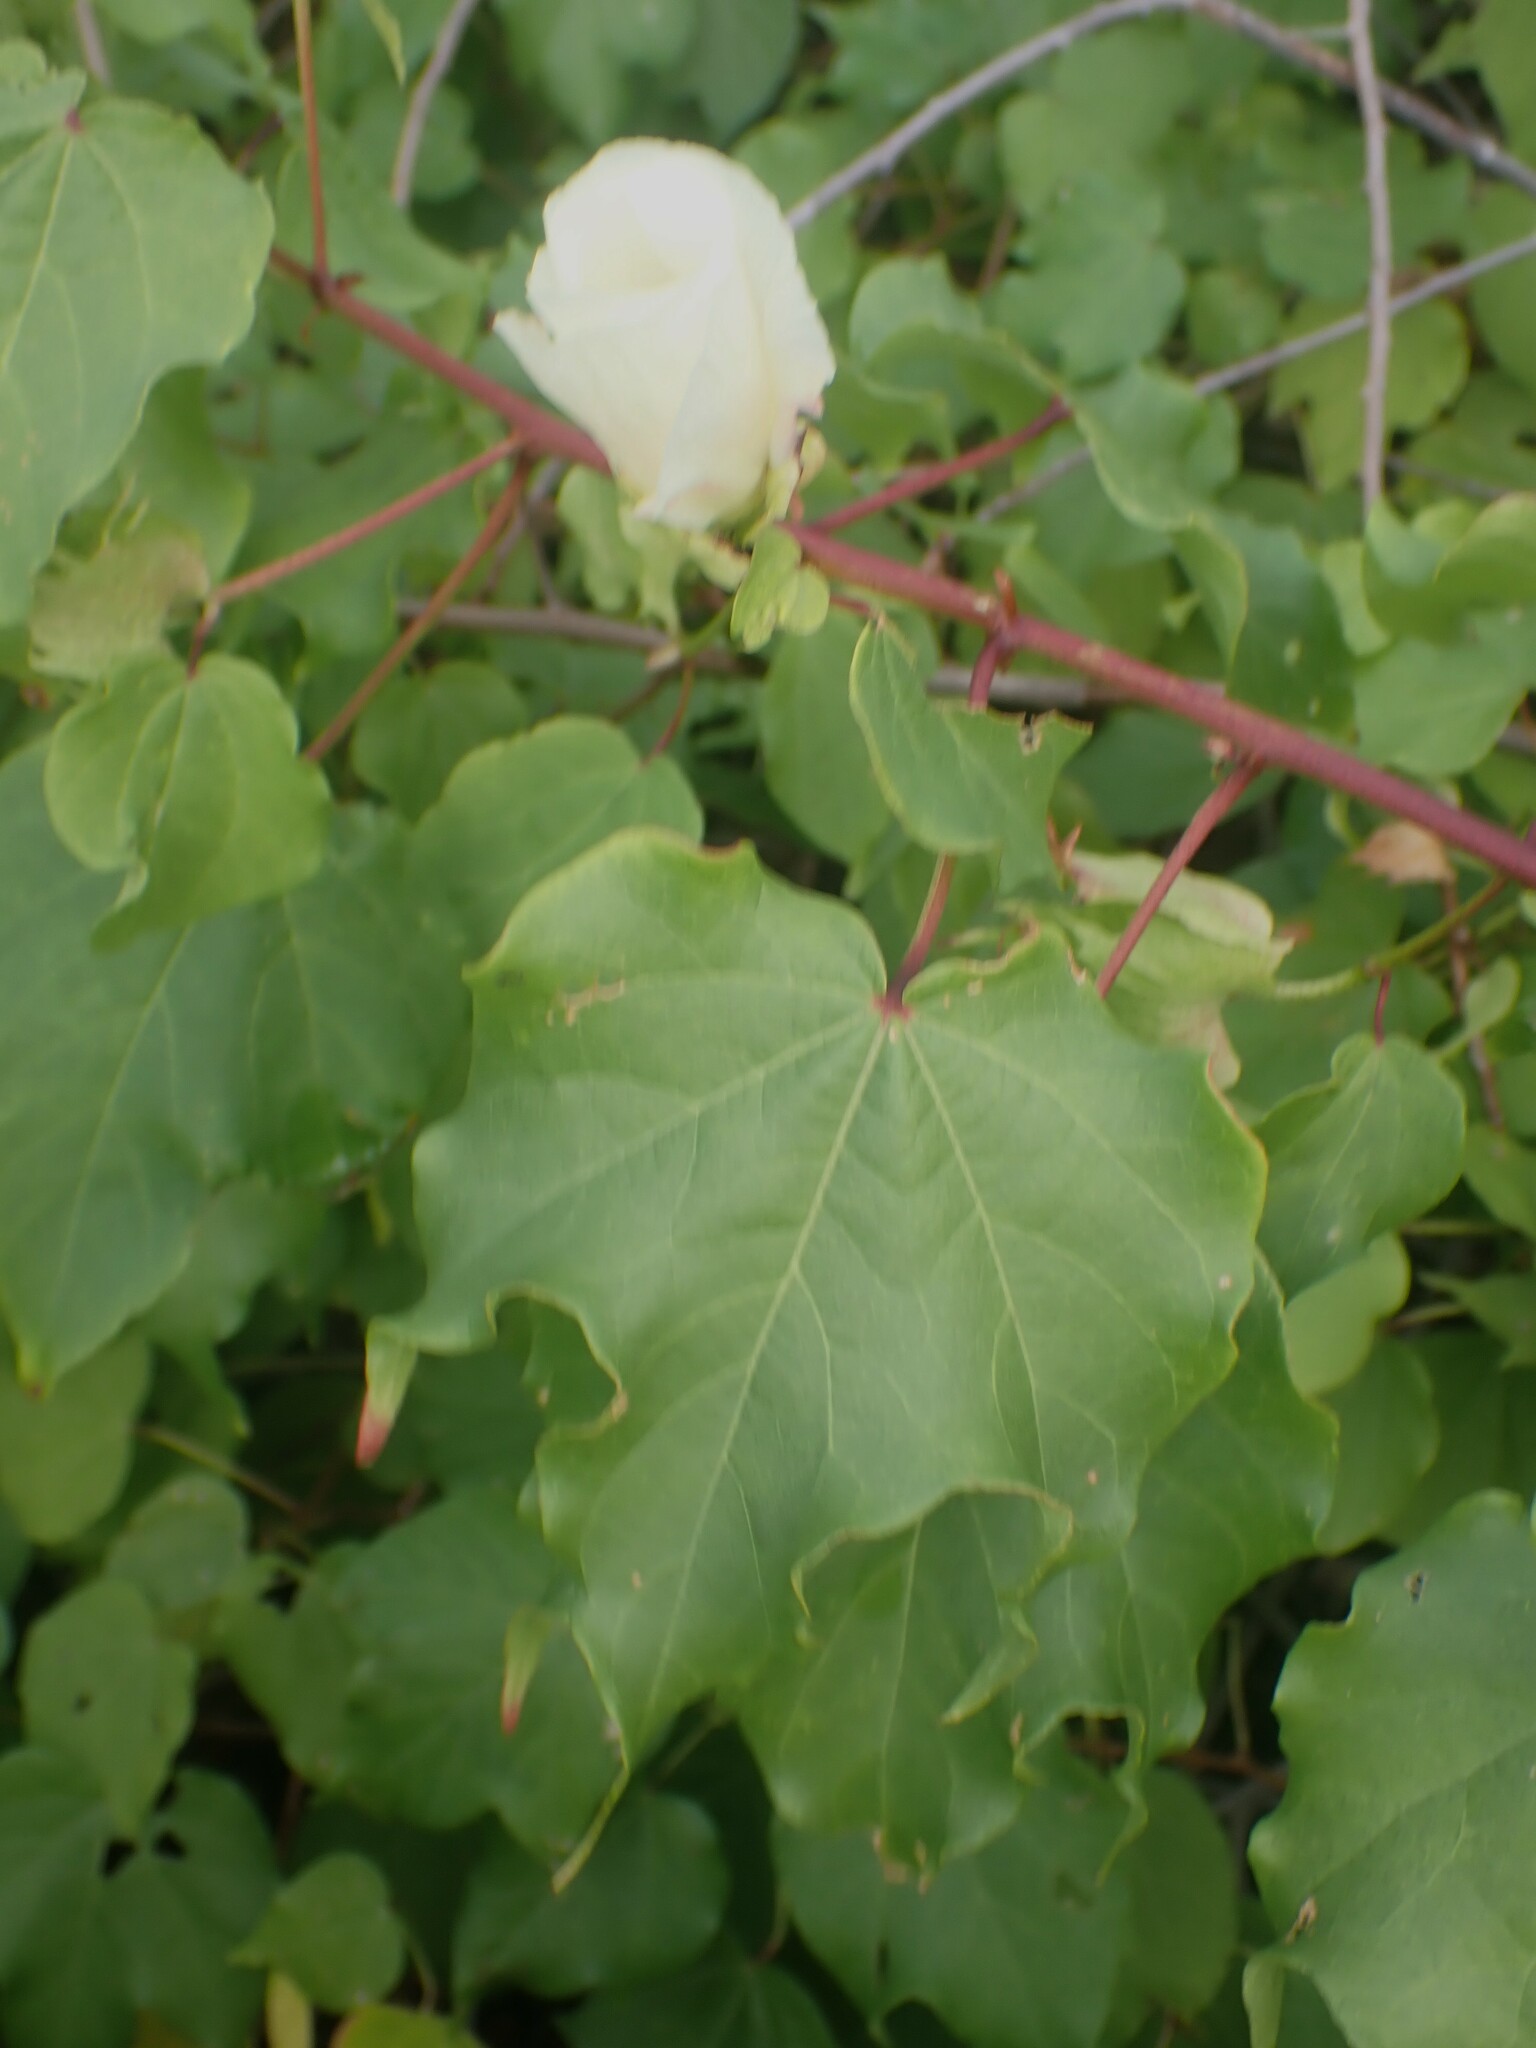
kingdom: Plantae
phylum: Tracheophyta
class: Magnoliopsida
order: Malvales
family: Malvaceae
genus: Gossypium
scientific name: Gossypium hirsutum
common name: Cotton
